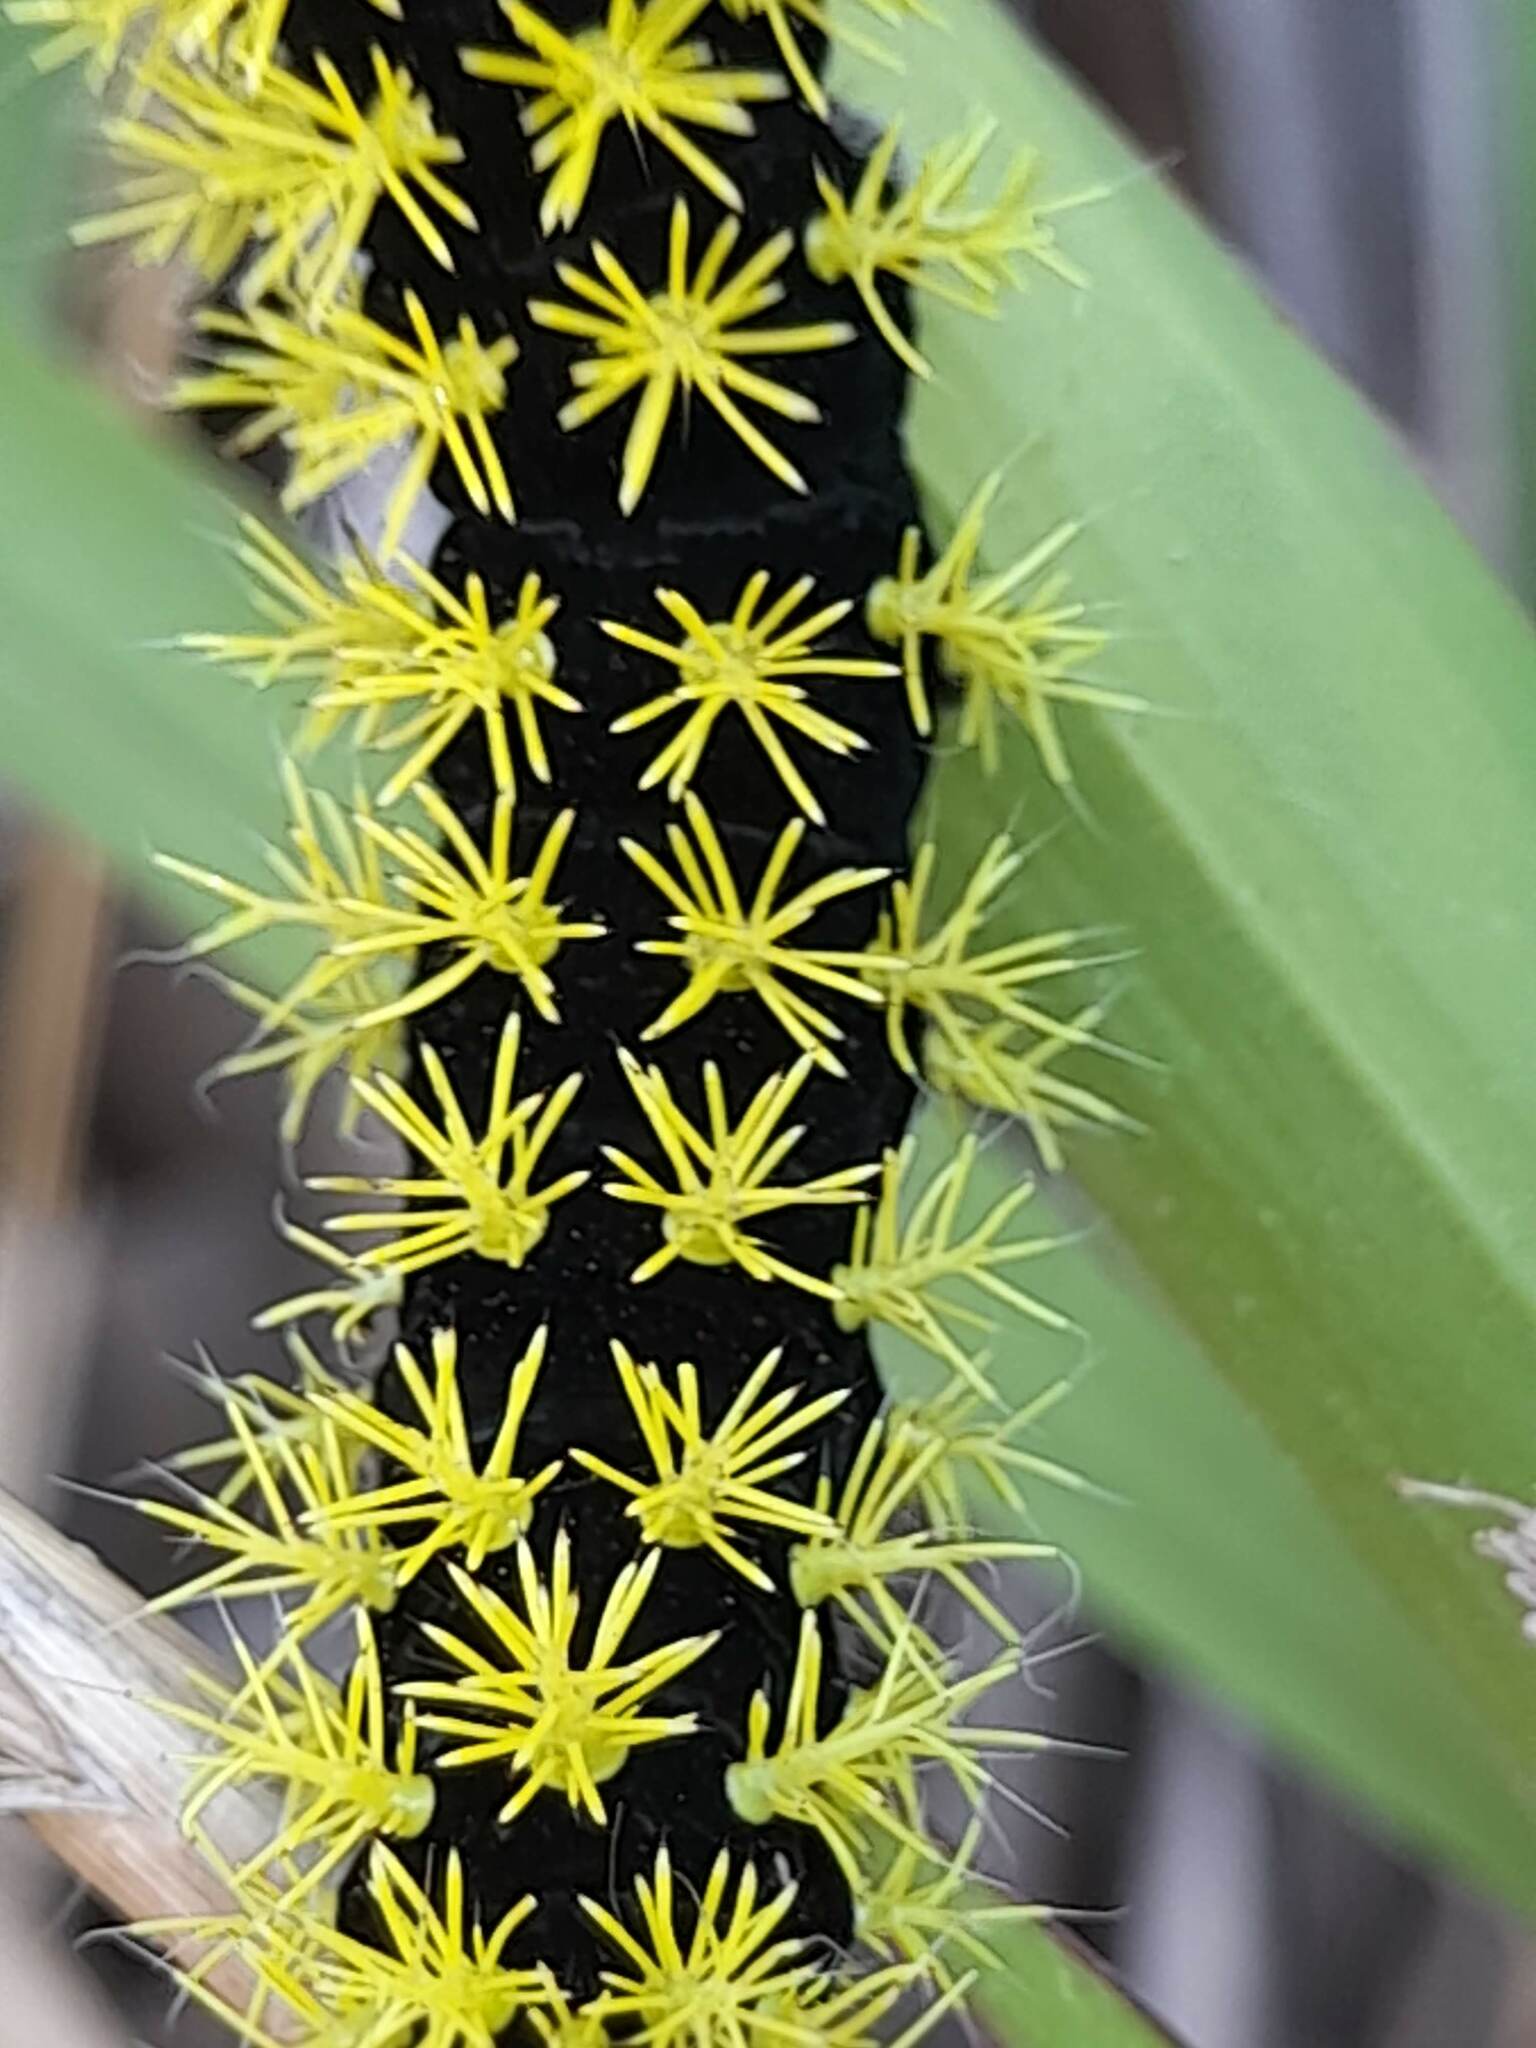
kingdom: Animalia
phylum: Arthropoda
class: Insecta
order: Lepidoptera
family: Saturniidae
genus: Leucanella
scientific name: Leucanella viridescens
